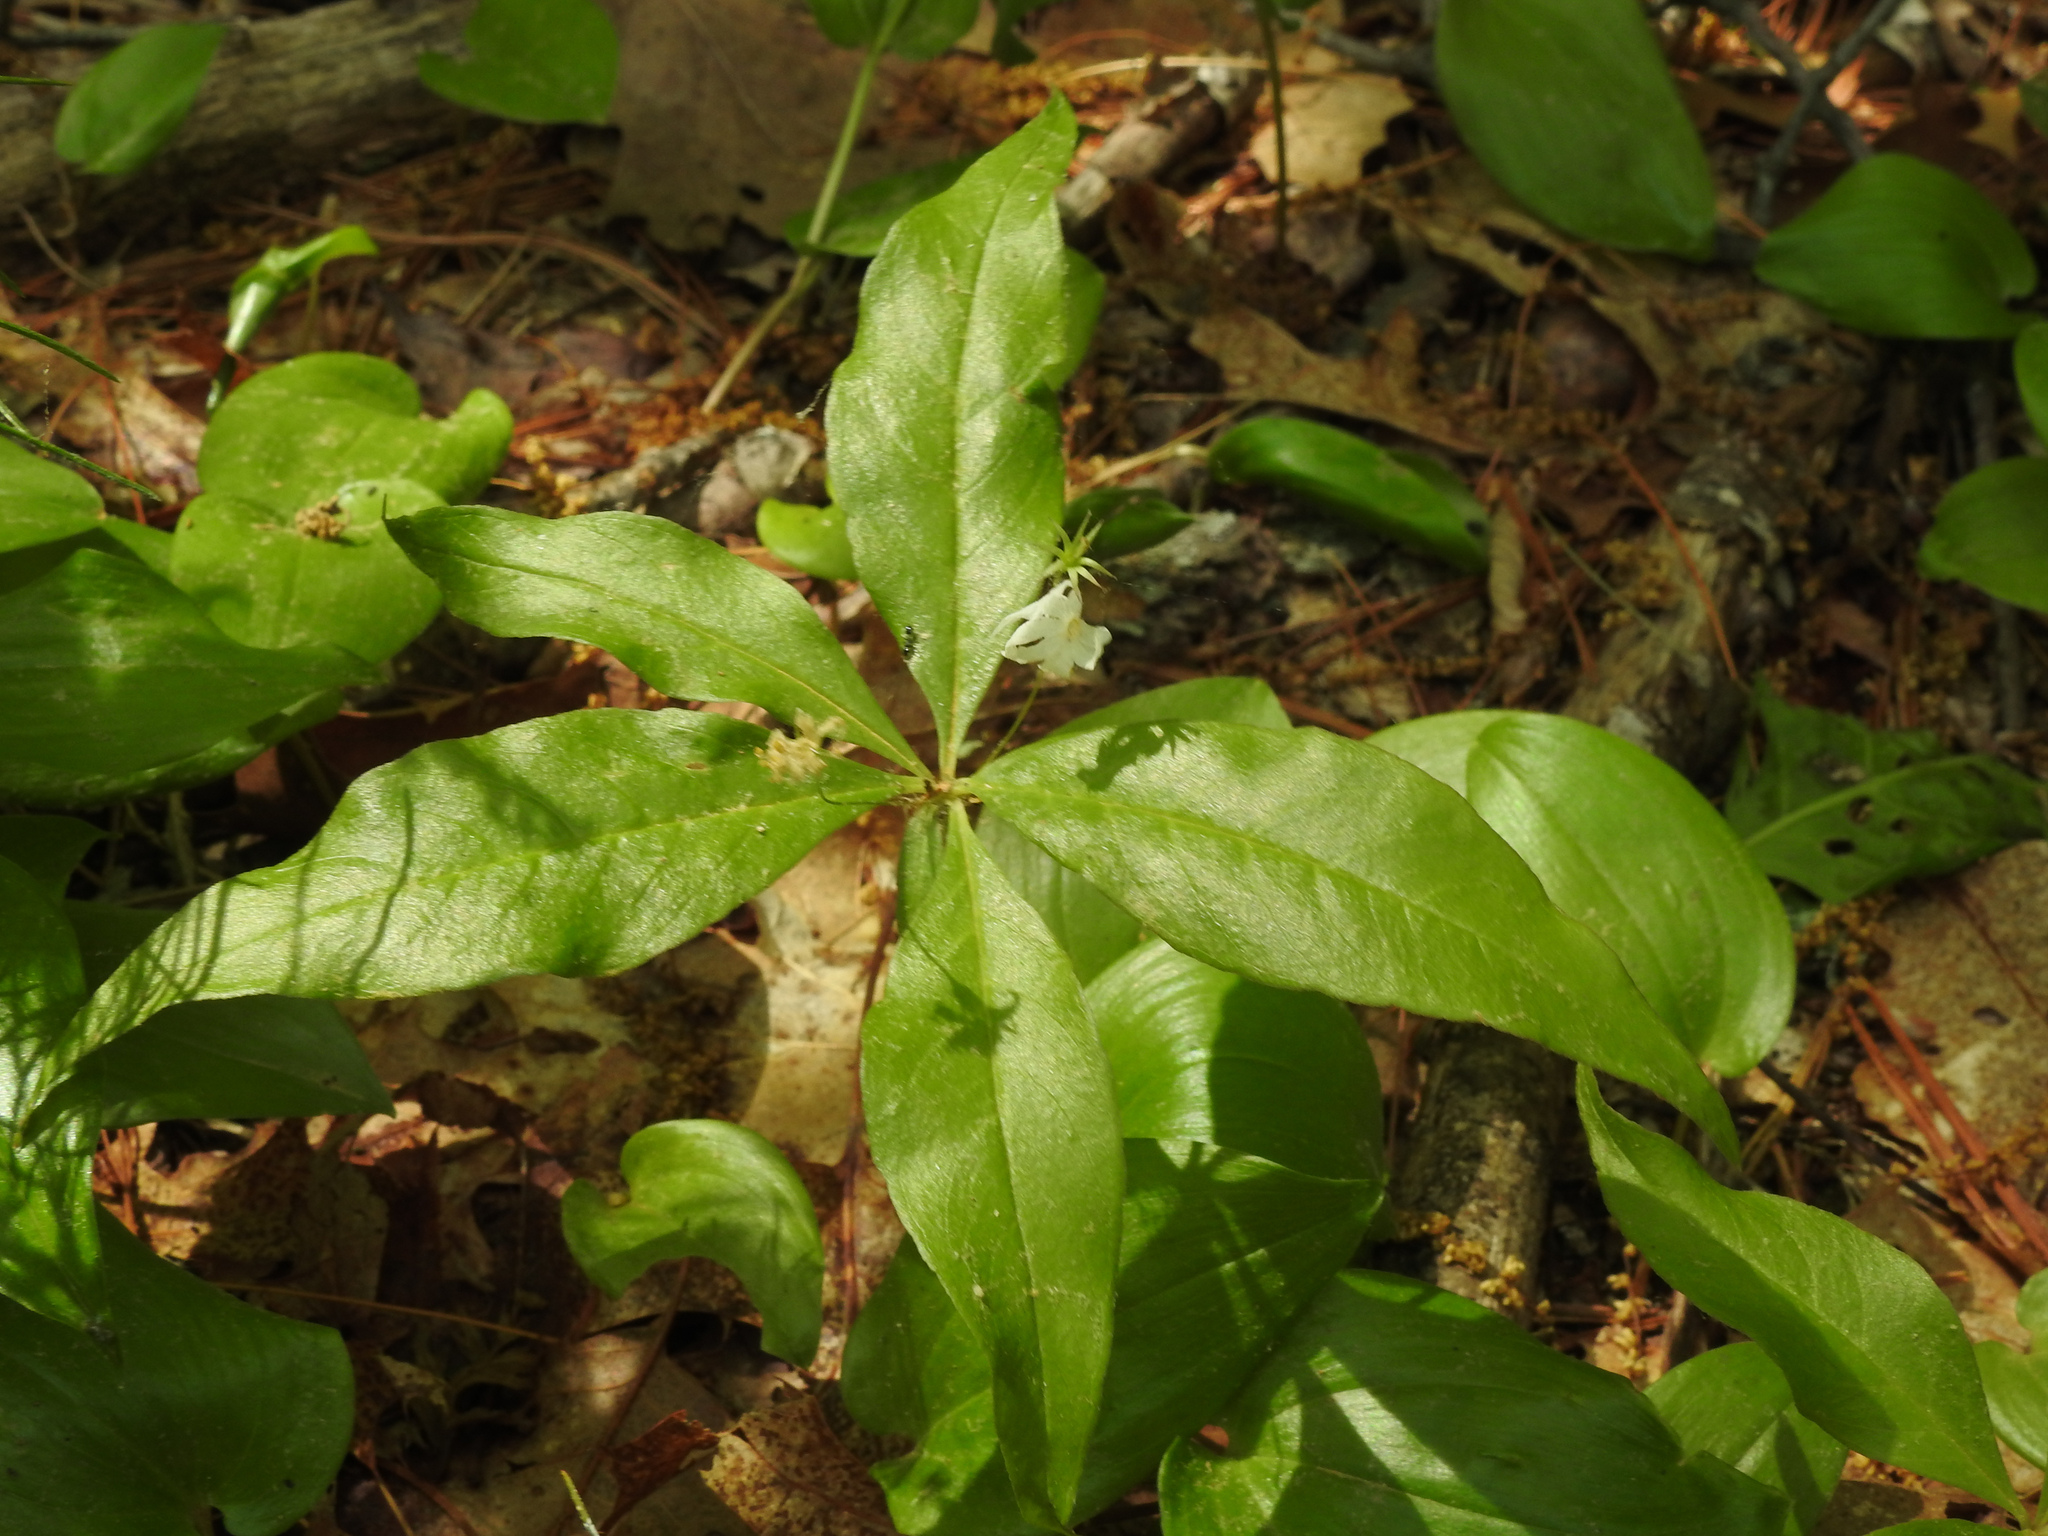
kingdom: Plantae
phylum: Tracheophyta
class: Magnoliopsida
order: Ericales
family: Primulaceae
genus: Lysimachia
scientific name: Lysimachia borealis
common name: American starflower
